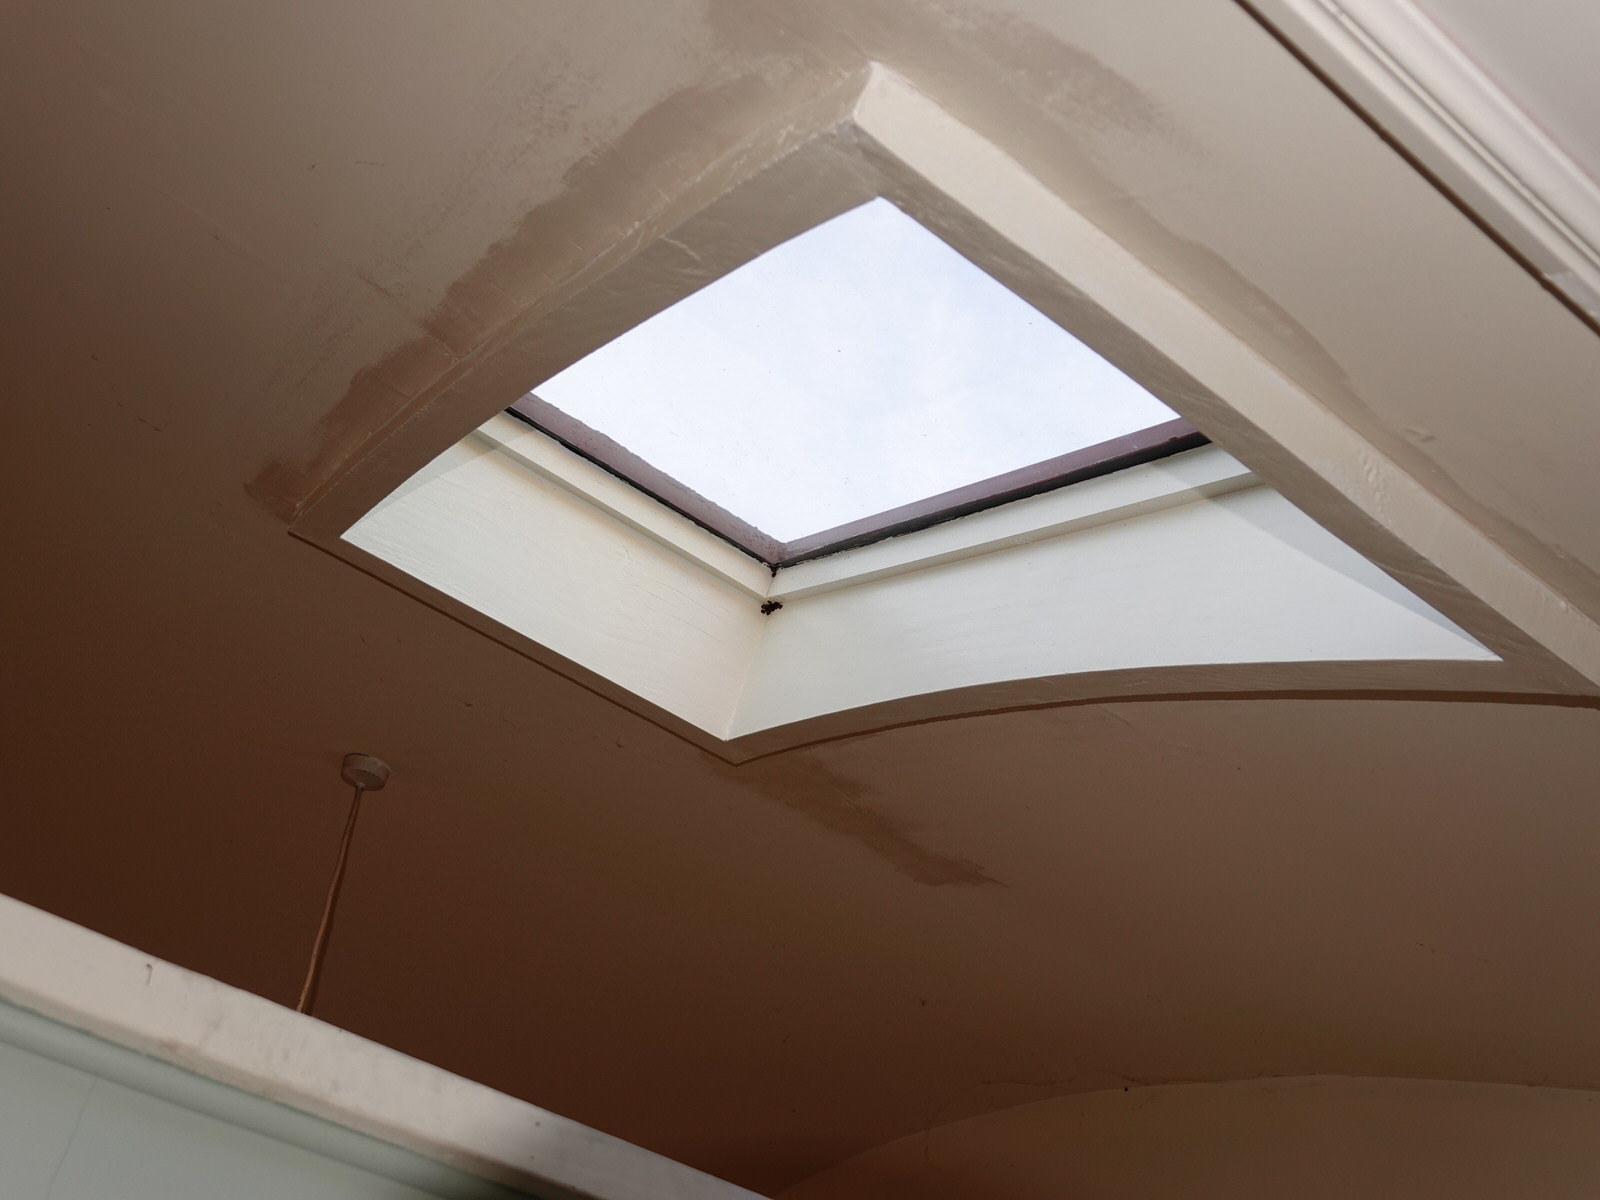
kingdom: Animalia
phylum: Arthropoda
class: Insecta
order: Coleoptera
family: Coccinellidae
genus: Harmonia
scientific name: Harmonia axyridis
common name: Harlequin ladybird
